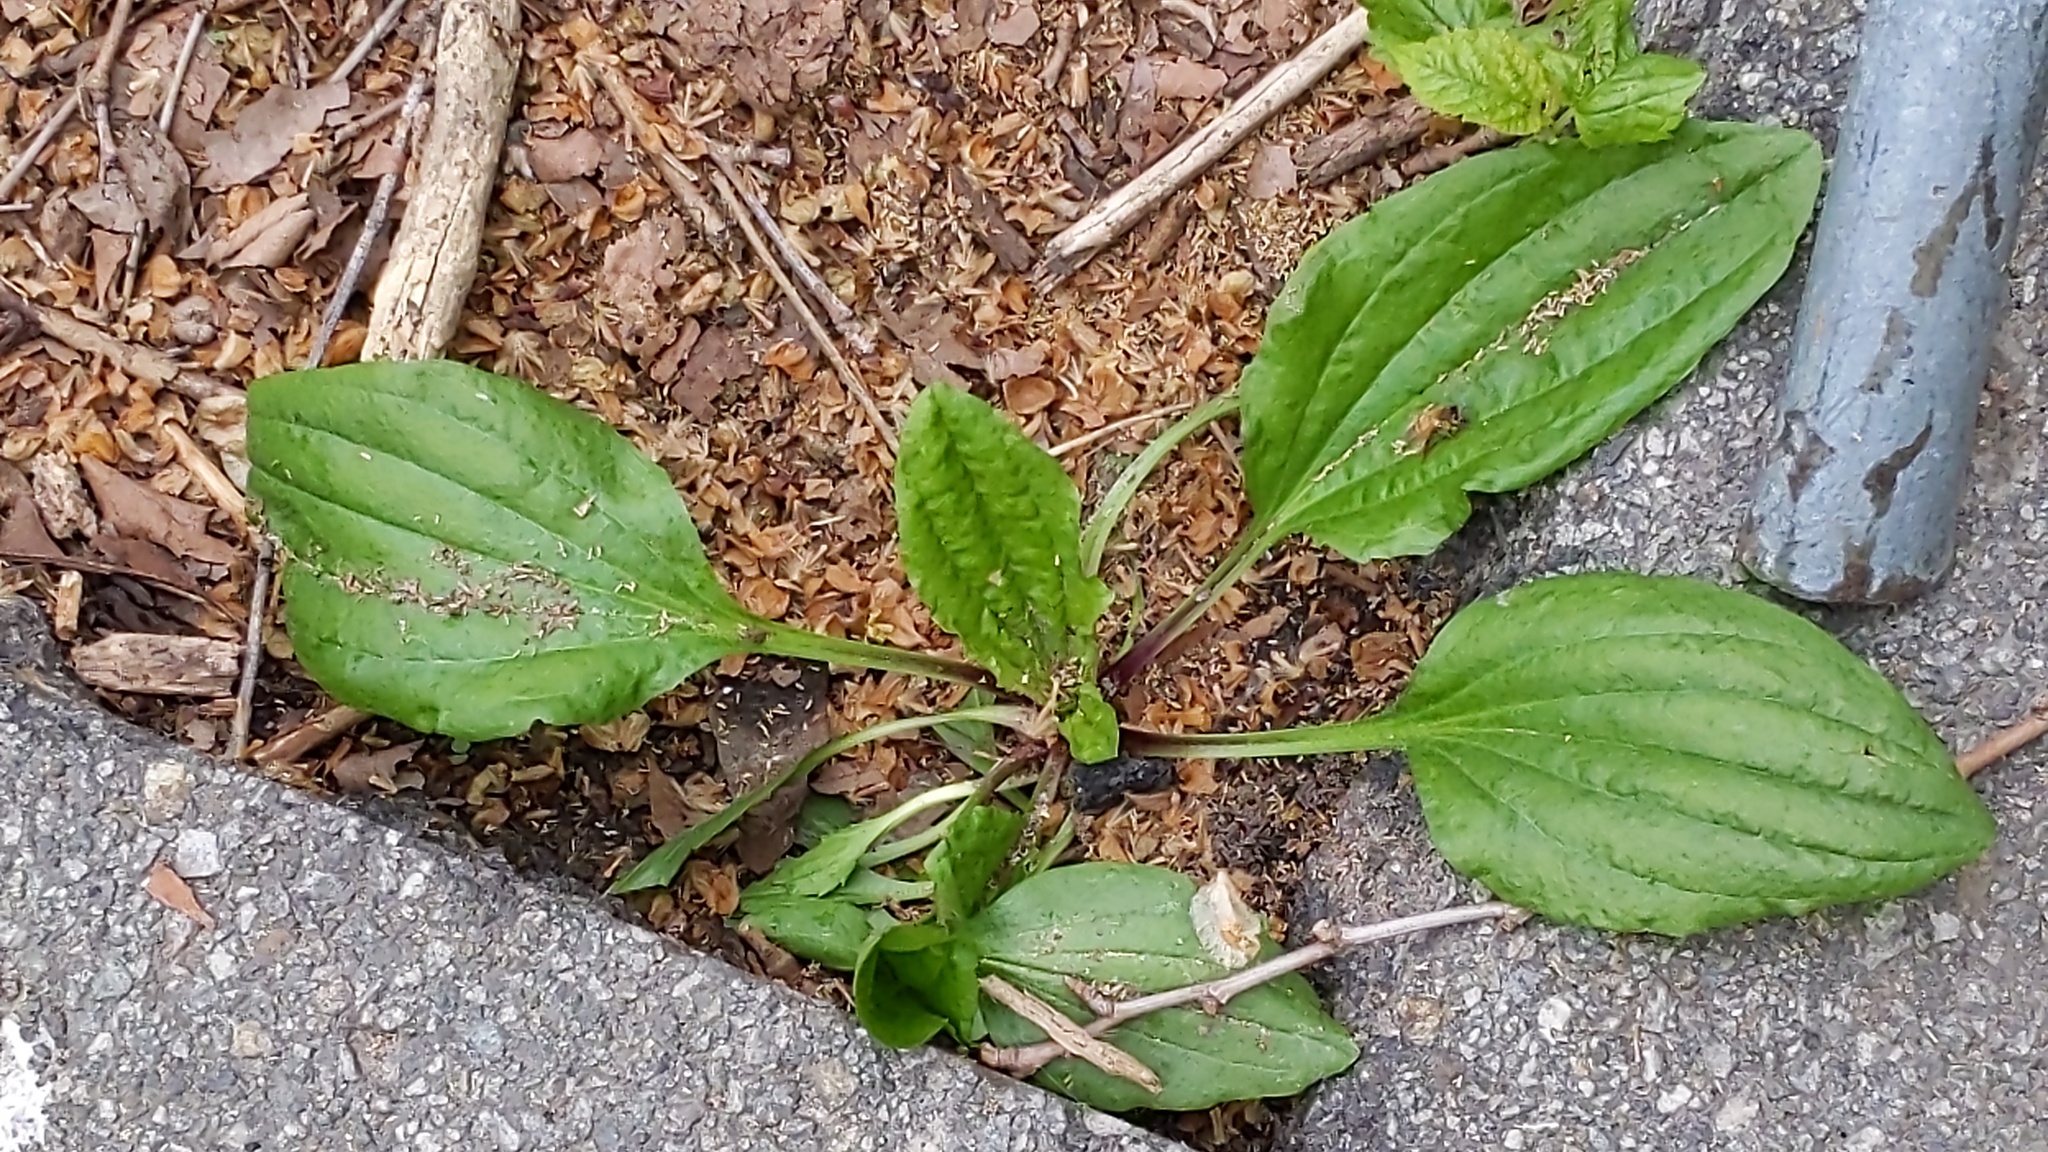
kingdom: Plantae
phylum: Tracheophyta
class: Magnoliopsida
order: Lamiales
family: Plantaginaceae
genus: Plantago
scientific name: Plantago major
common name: Common plantain
